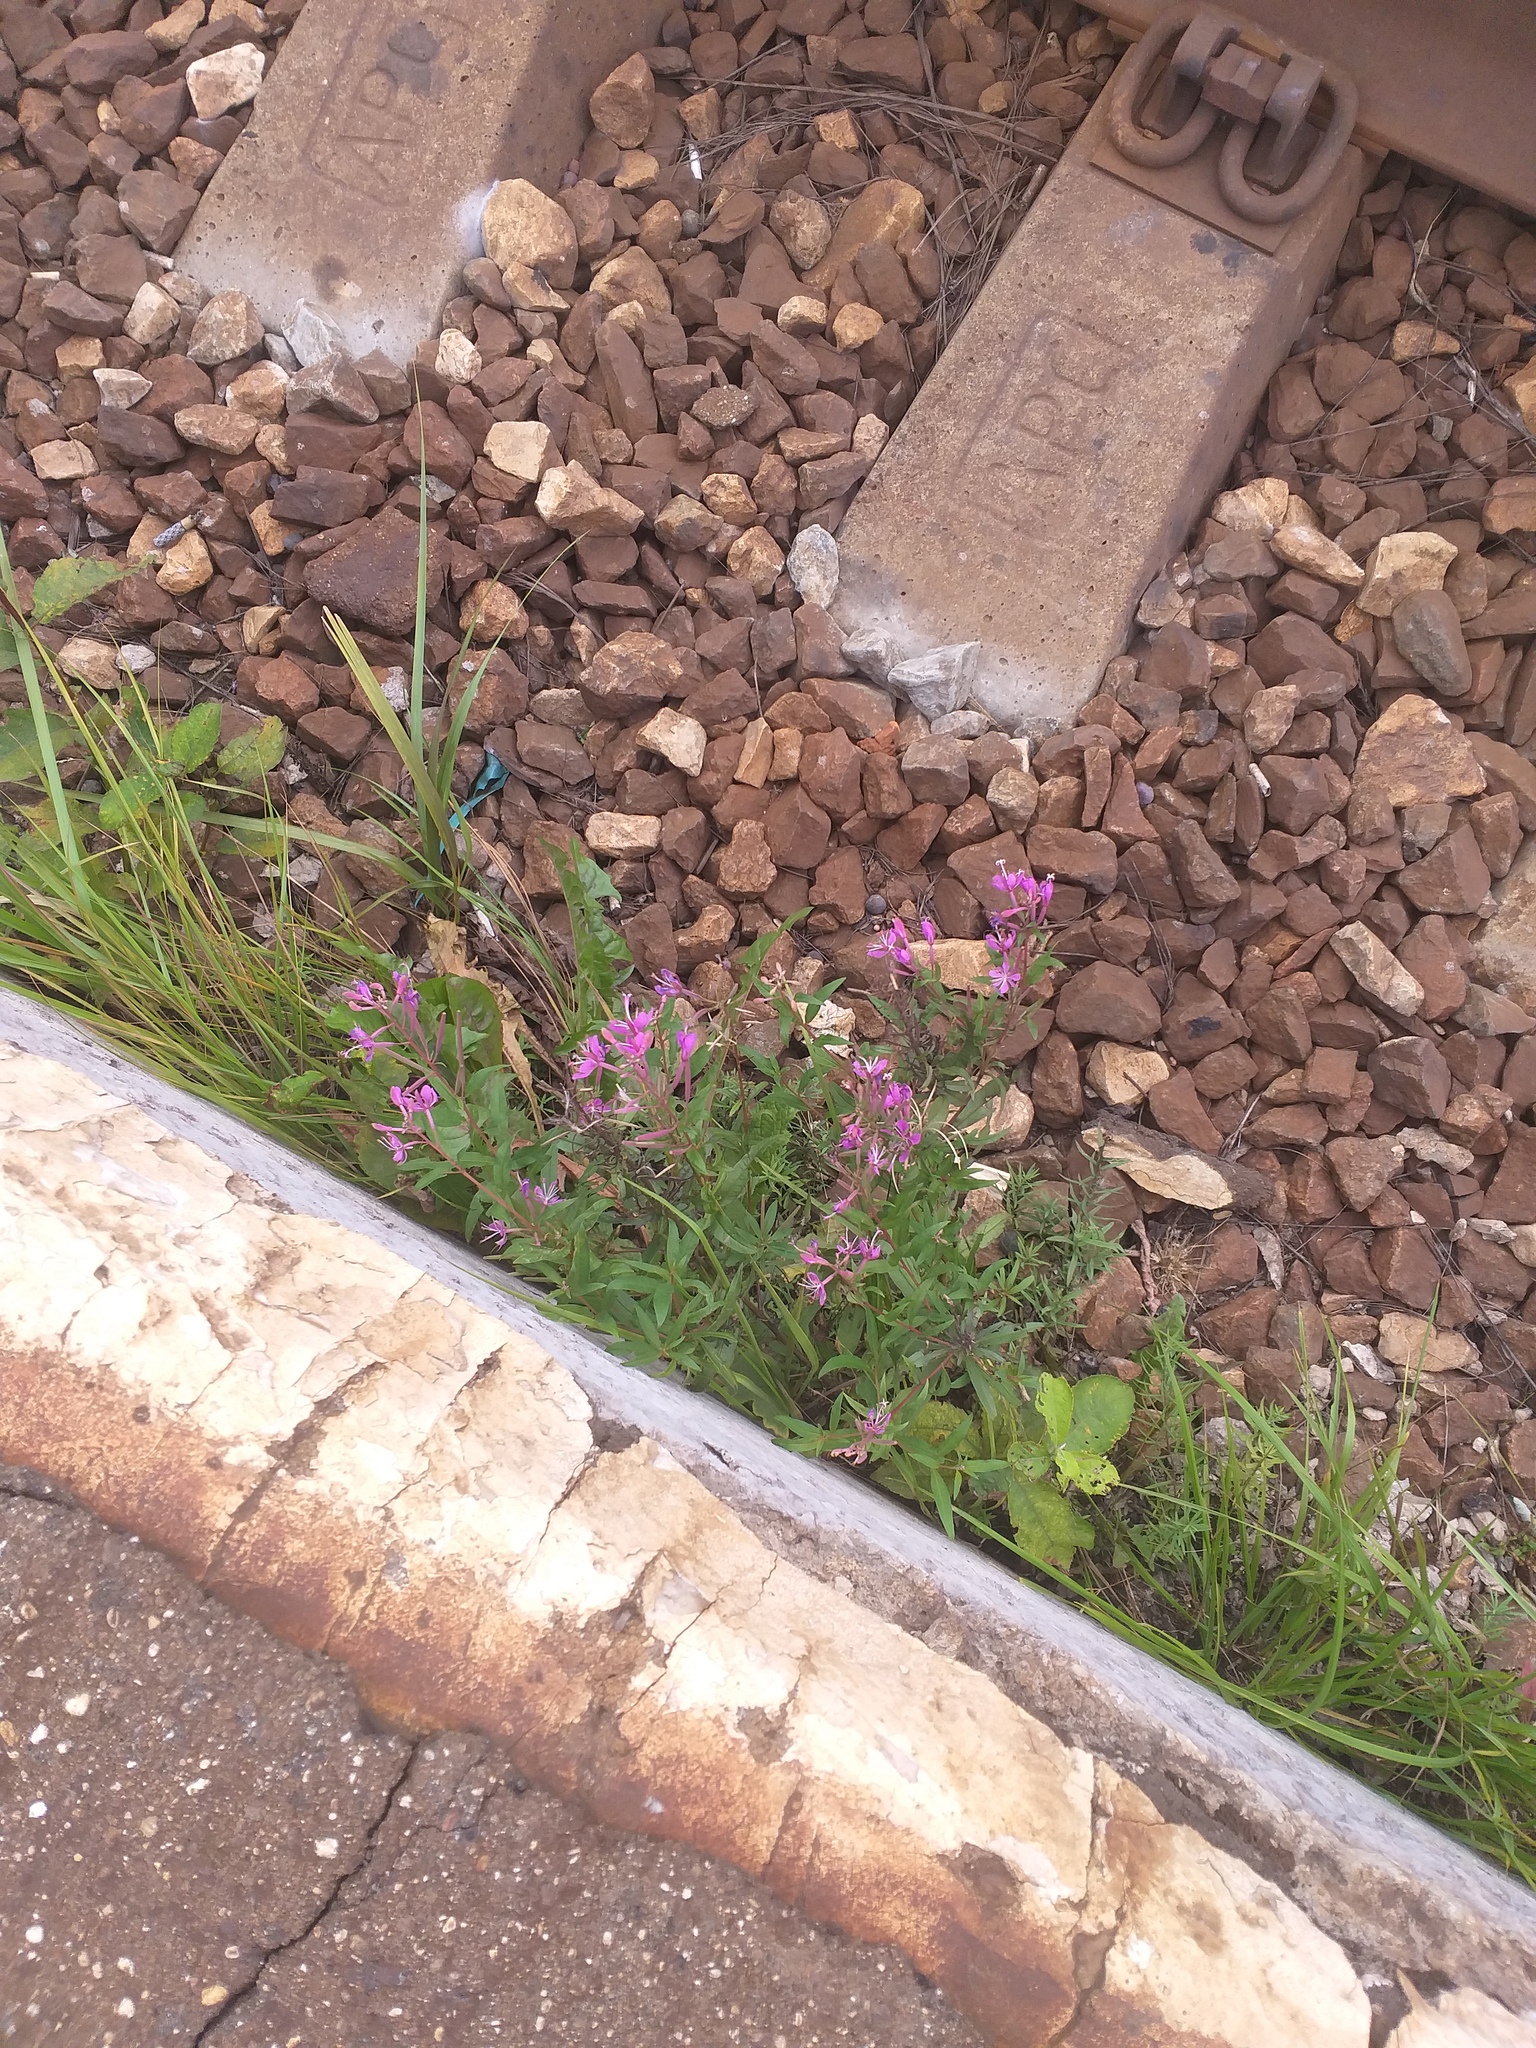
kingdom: Plantae
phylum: Tracheophyta
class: Magnoliopsida
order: Myrtales
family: Onagraceae
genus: Chamaenerion
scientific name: Chamaenerion angustifolium
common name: Fireweed
